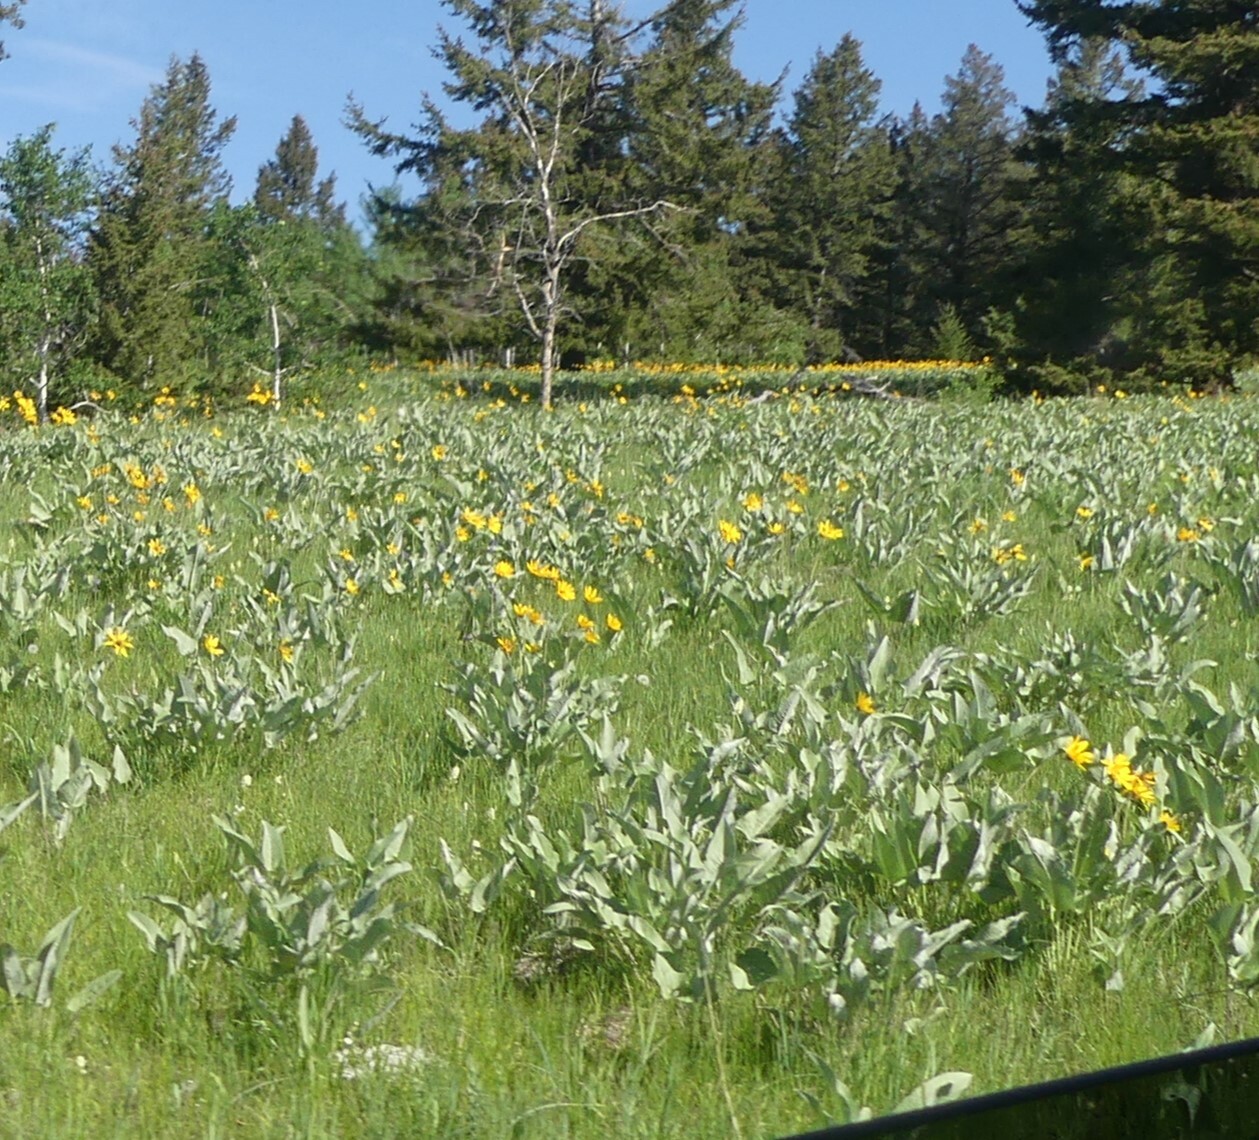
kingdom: Plantae
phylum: Tracheophyta
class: Magnoliopsida
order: Asterales
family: Asteraceae
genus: Wyethia
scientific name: Wyethia sagittata
